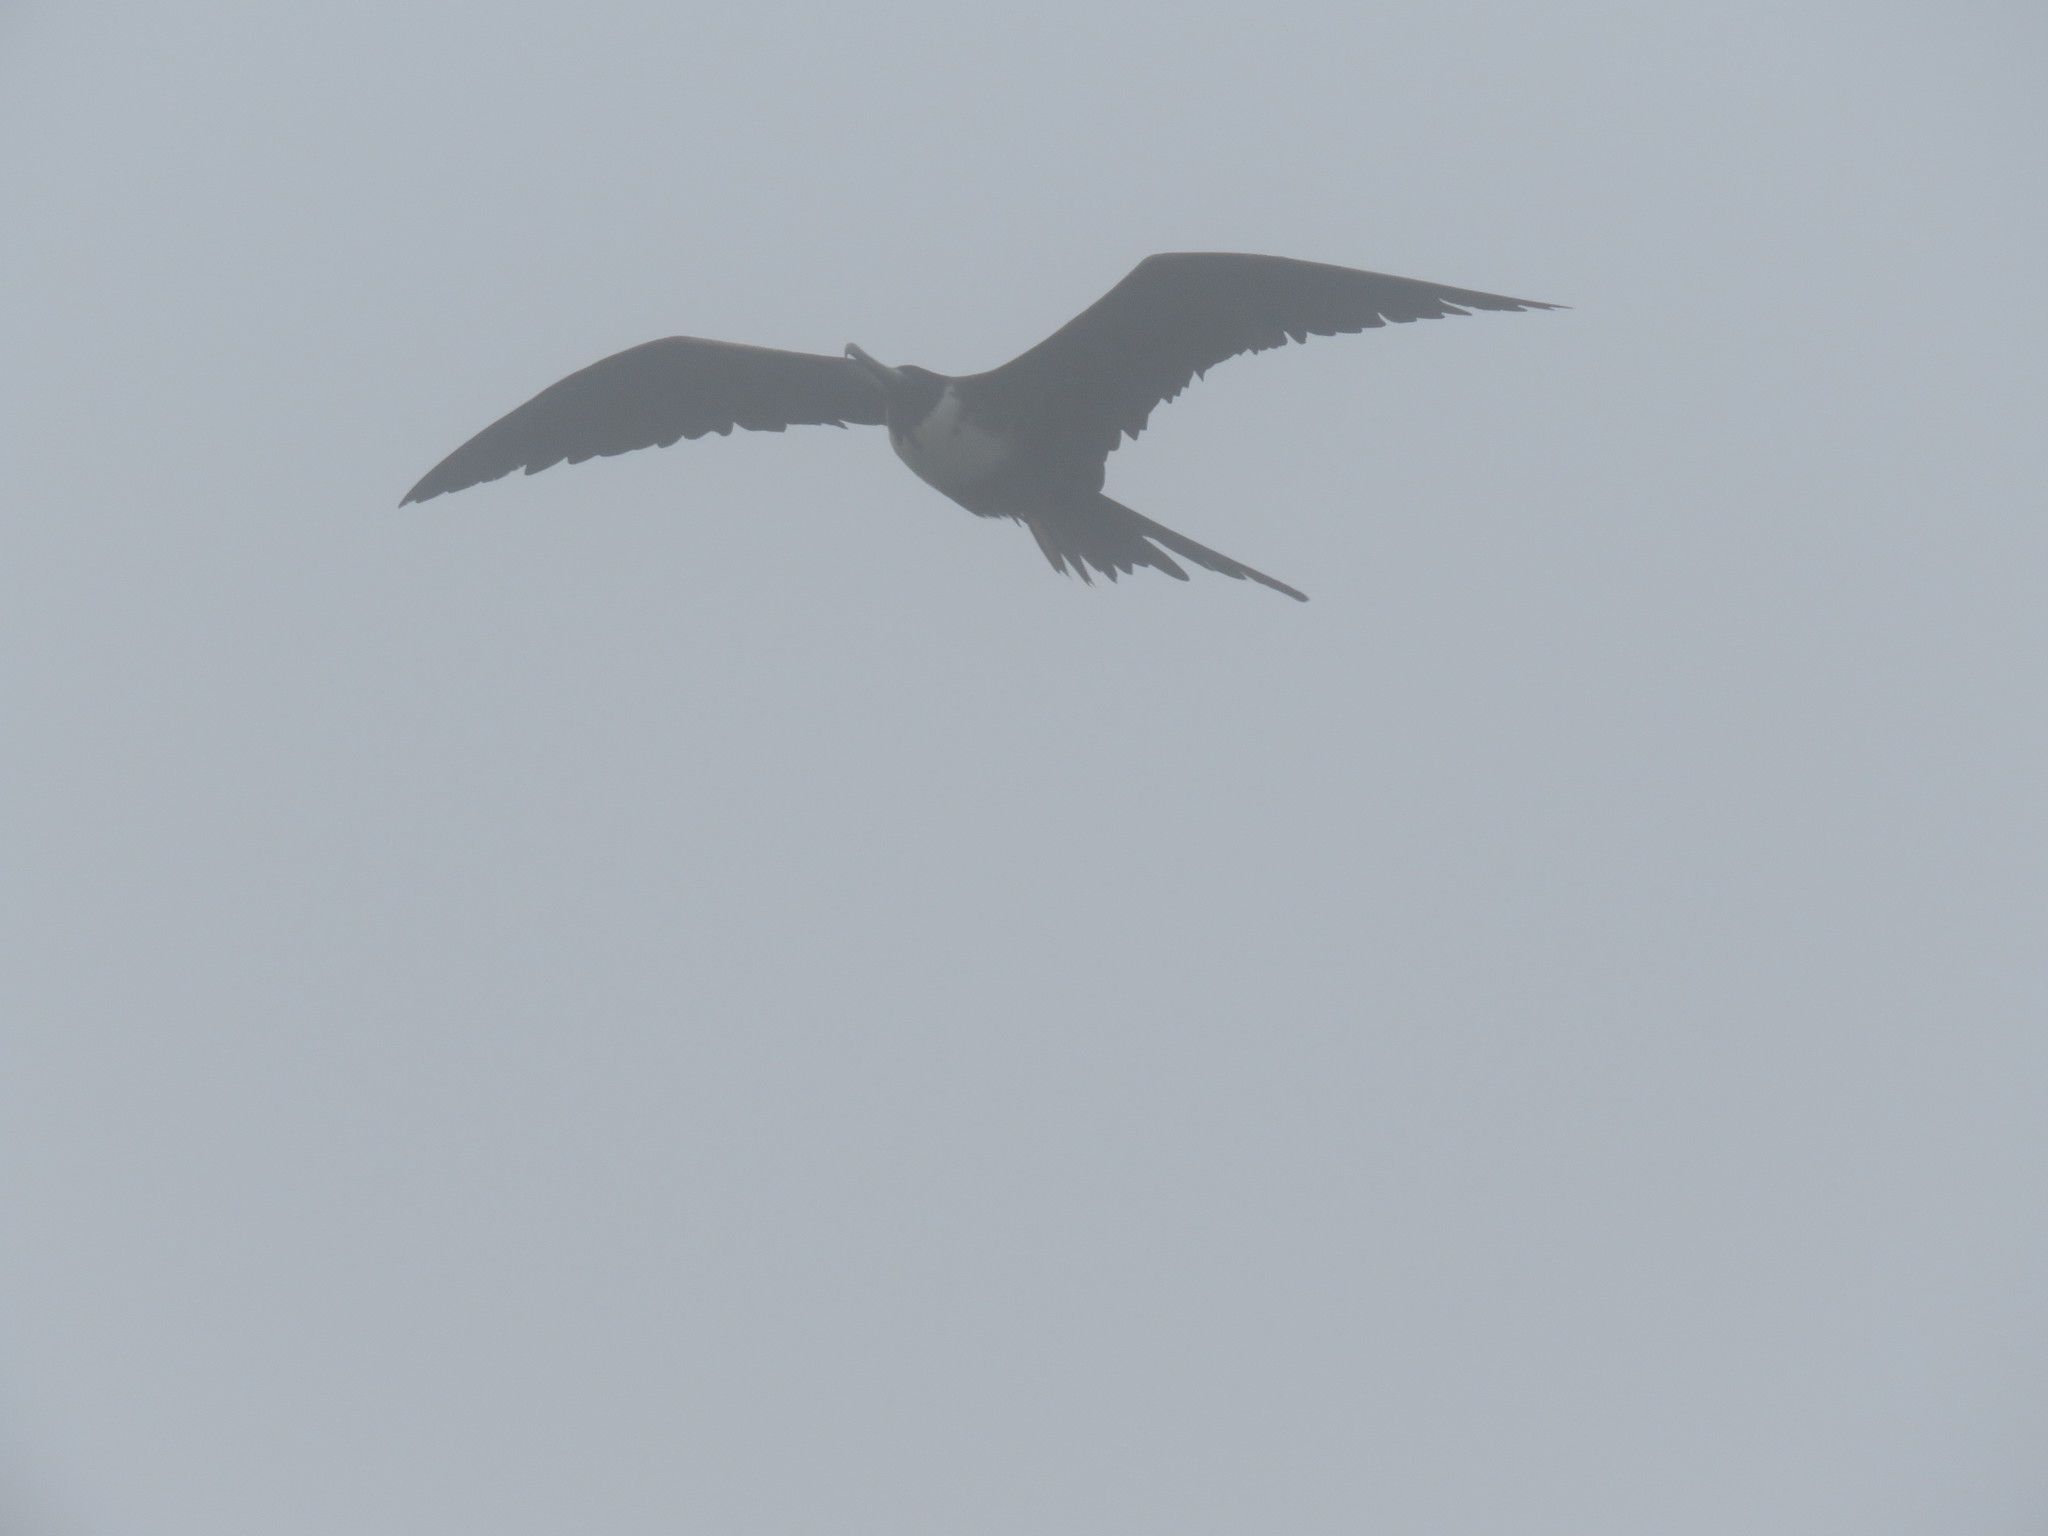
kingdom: Animalia
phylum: Chordata
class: Aves
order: Suliformes
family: Fregatidae
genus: Fregata
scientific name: Fregata magnificens
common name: Magnificent frigatebird
